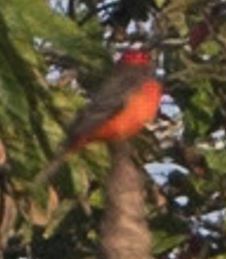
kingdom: Animalia
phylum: Chordata
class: Aves
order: Passeriformes
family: Tyrannidae
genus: Pyrocephalus
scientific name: Pyrocephalus rubinus
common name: Vermilion flycatcher
